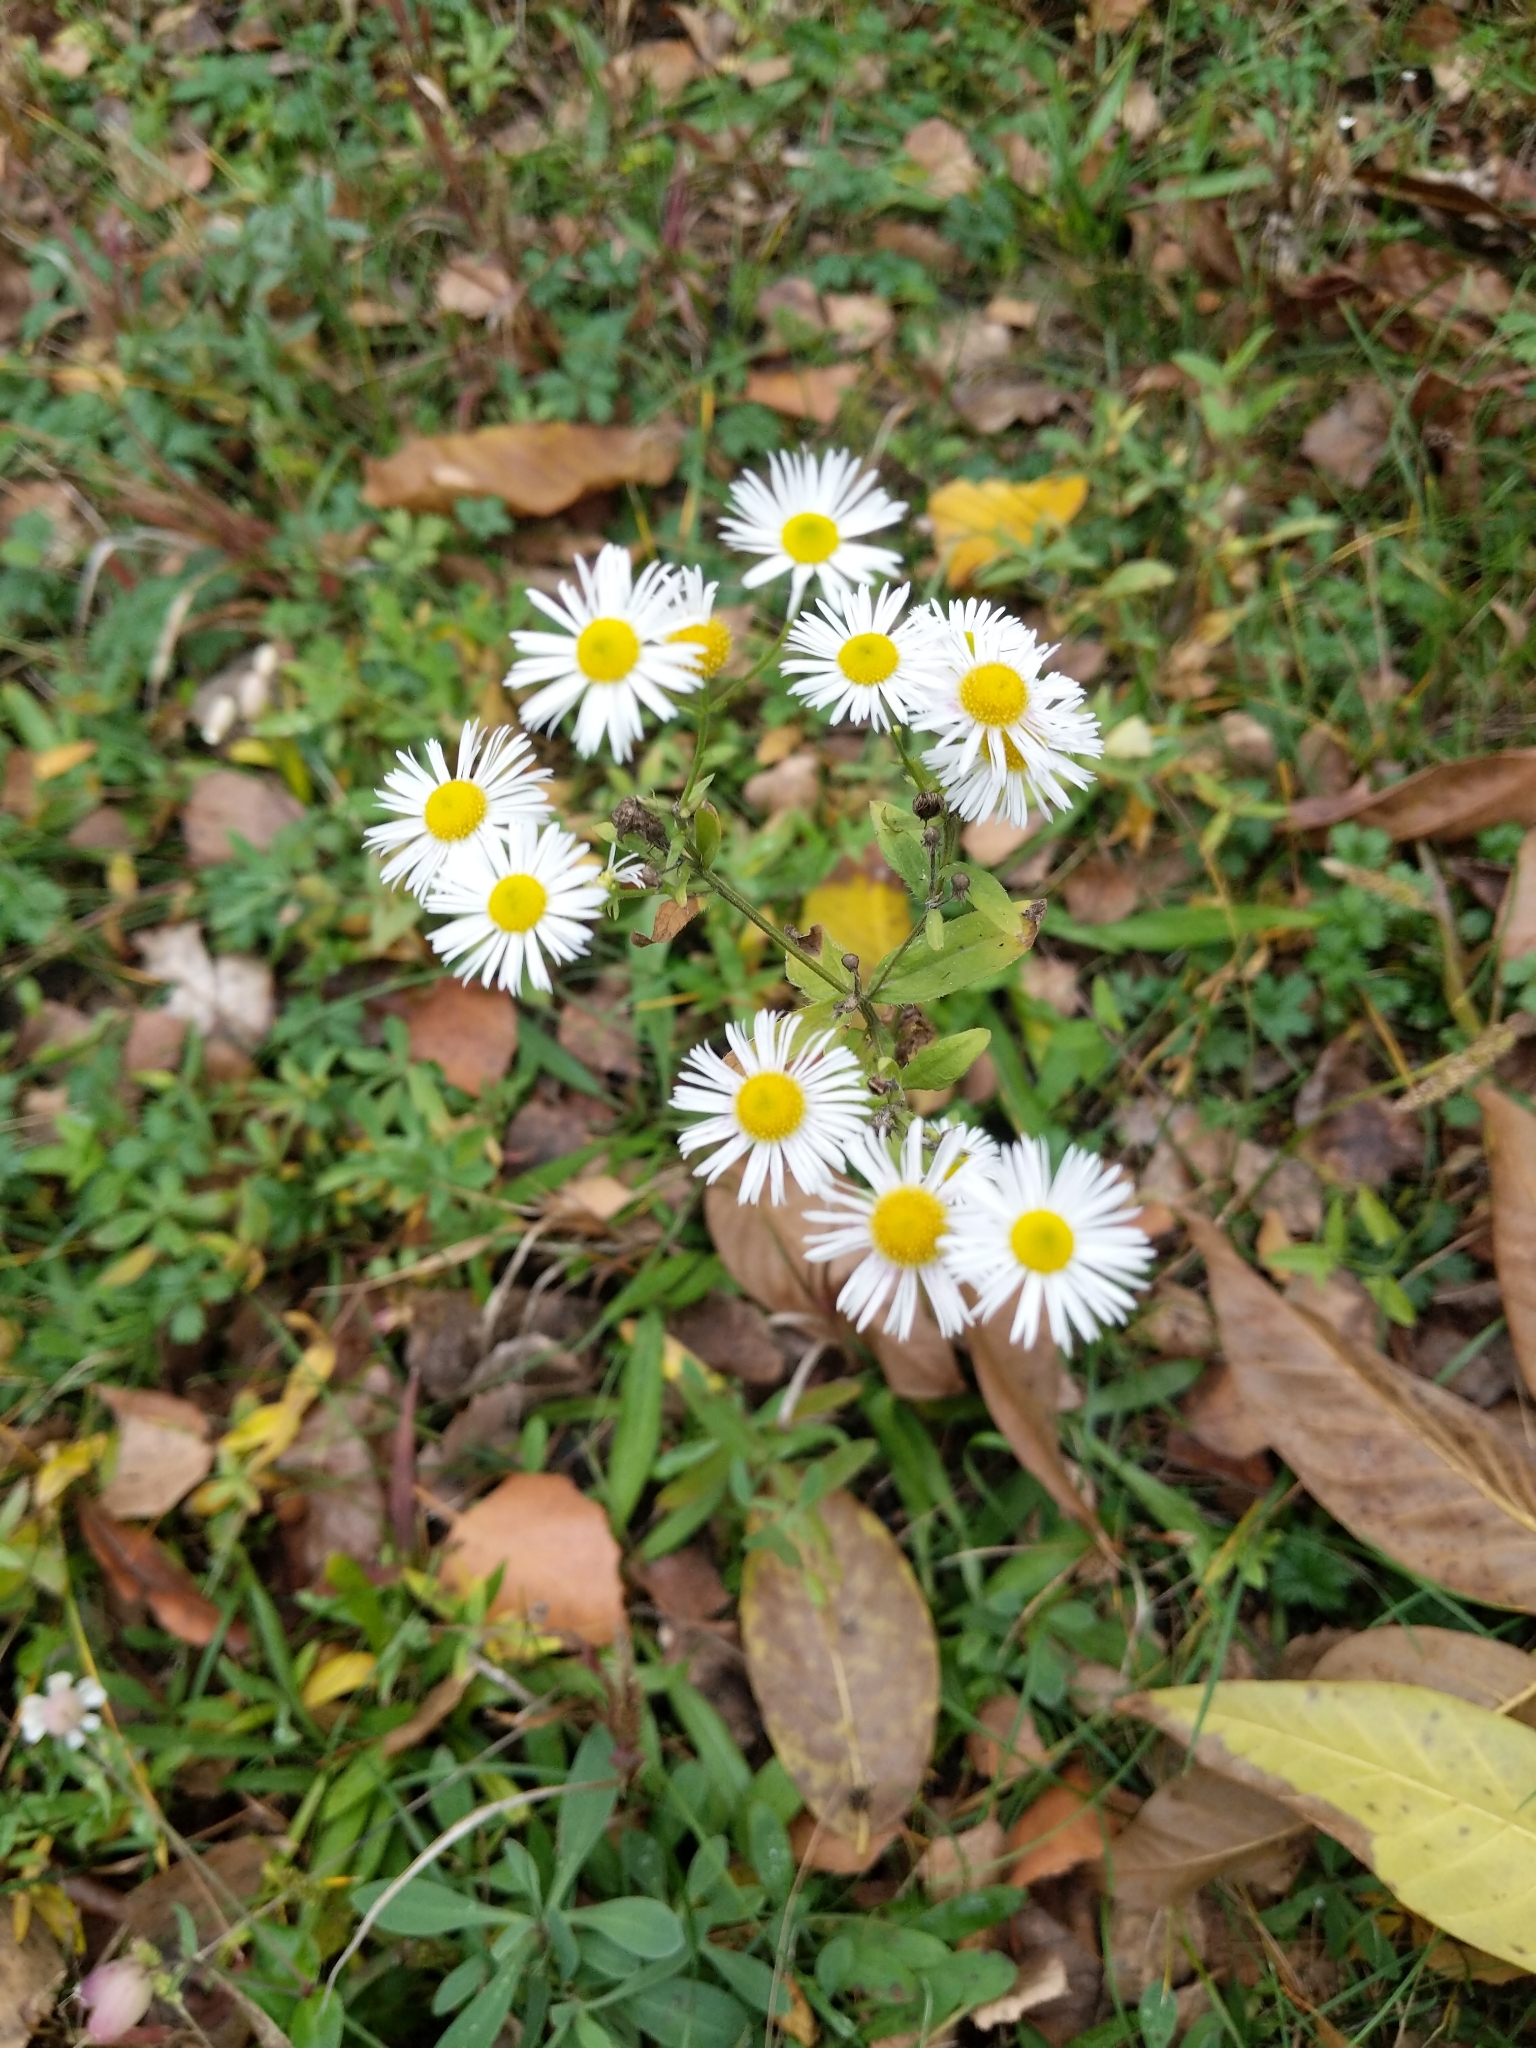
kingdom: Plantae
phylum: Tracheophyta
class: Magnoliopsida
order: Asterales
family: Asteraceae
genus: Erigeron
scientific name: Erigeron annuus
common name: Tall fleabane
